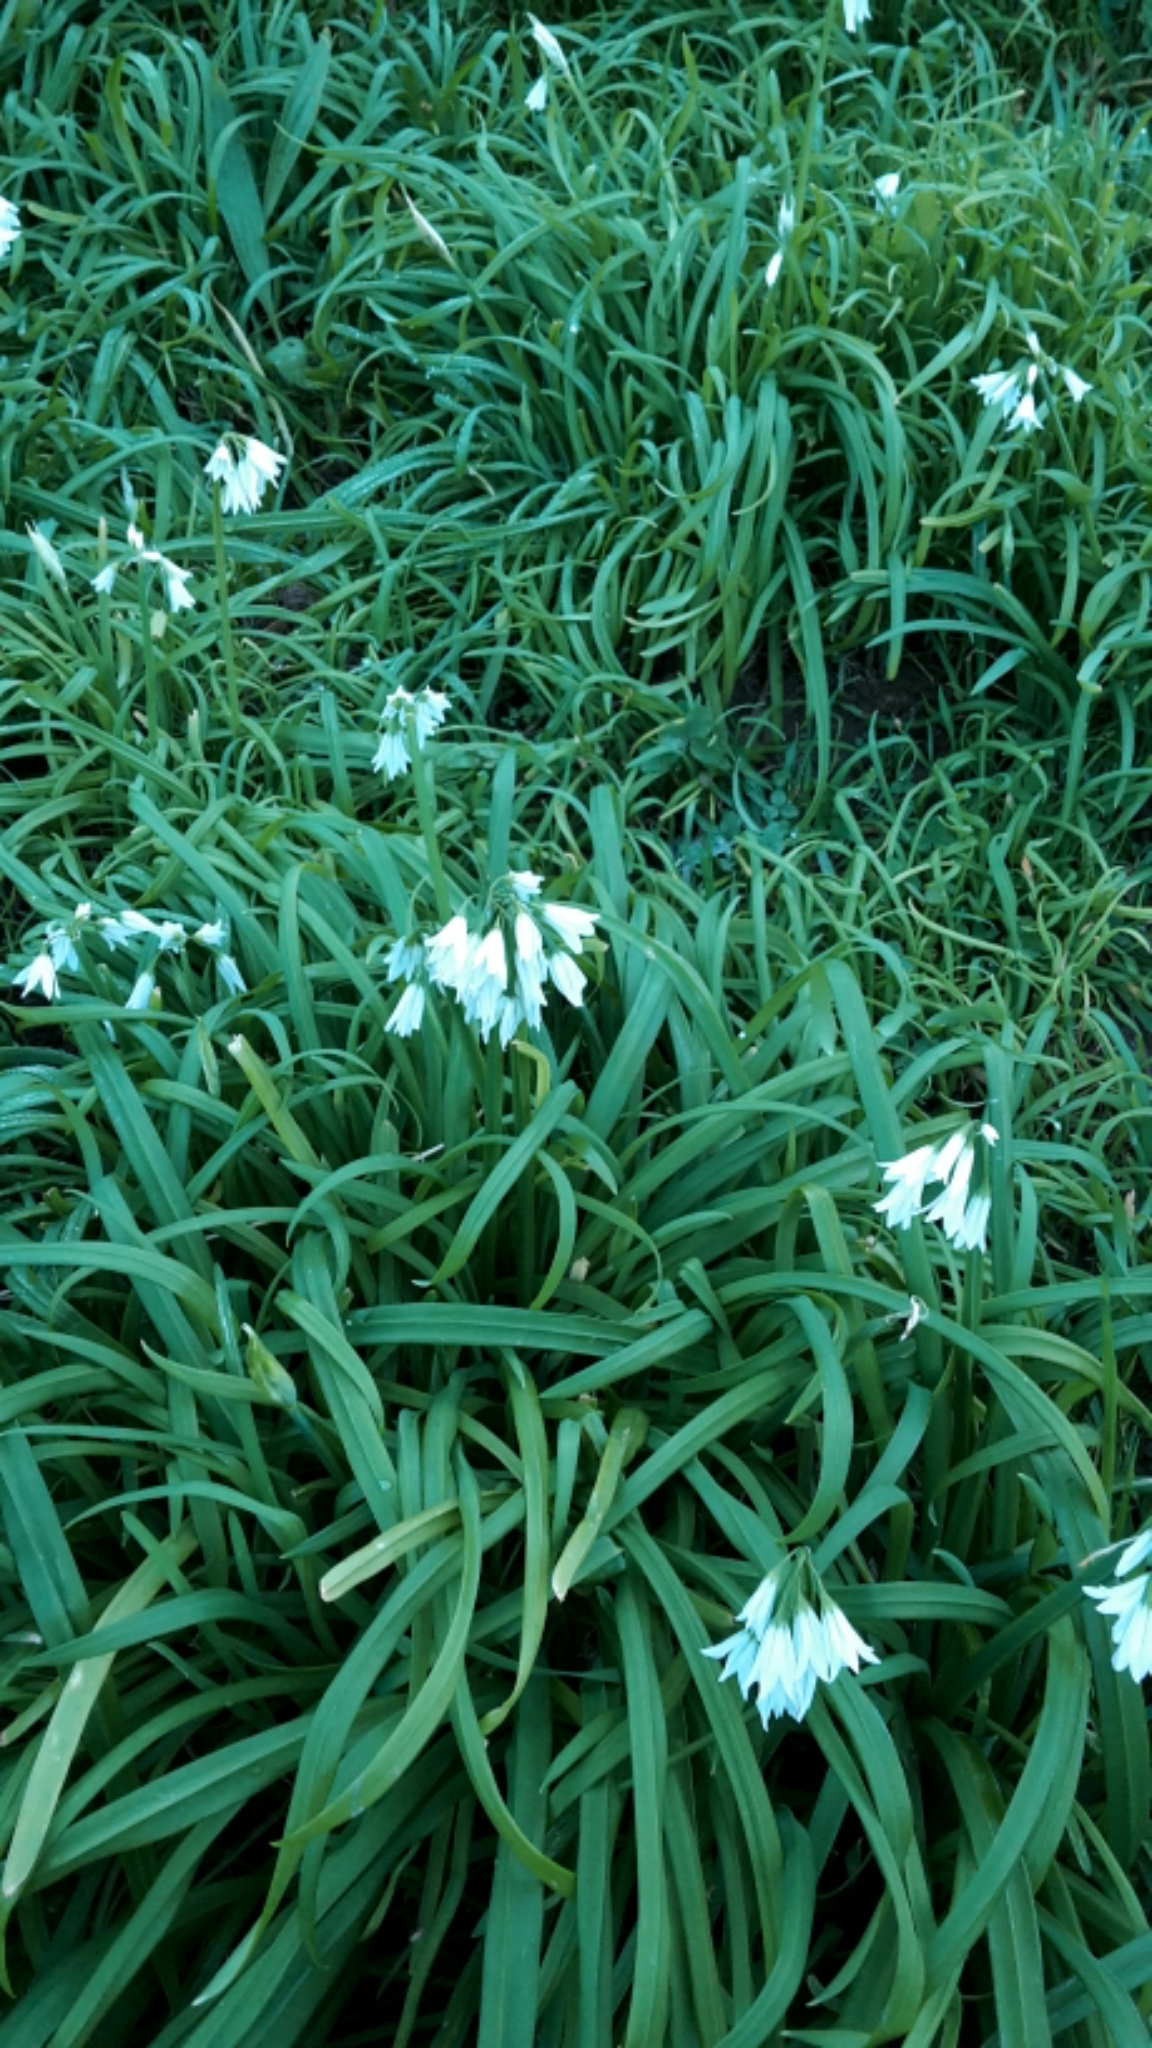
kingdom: Plantae
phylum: Tracheophyta
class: Liliopsida
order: Asparagales
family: Amaryllidaceae
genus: Allium
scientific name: Allium triquetrum
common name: Three-cornered garlic
